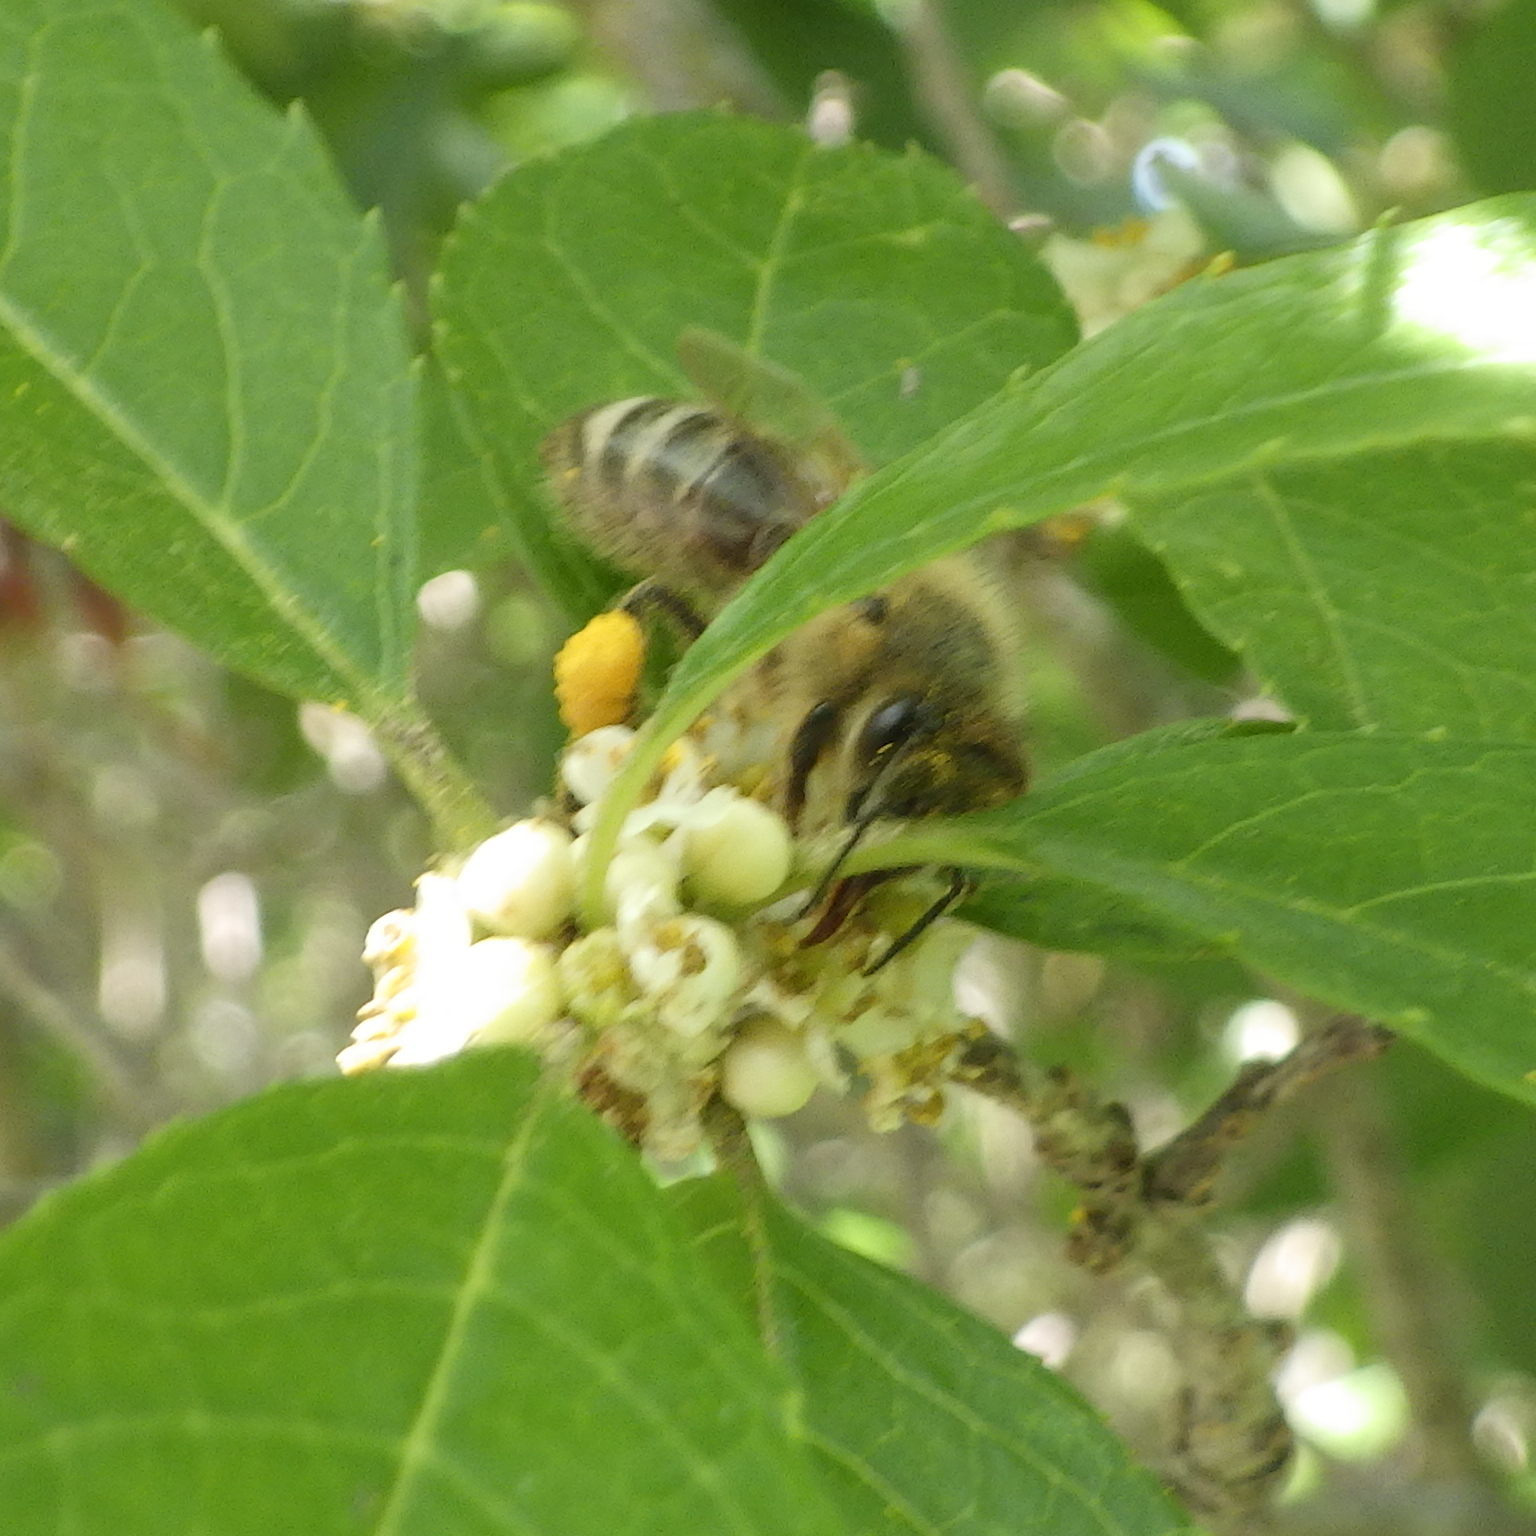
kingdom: Animalia
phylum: Arthropoda
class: Insecta
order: Hymenoptera
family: Apidae
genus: Apis
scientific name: Apis mellifera
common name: Honey bee
